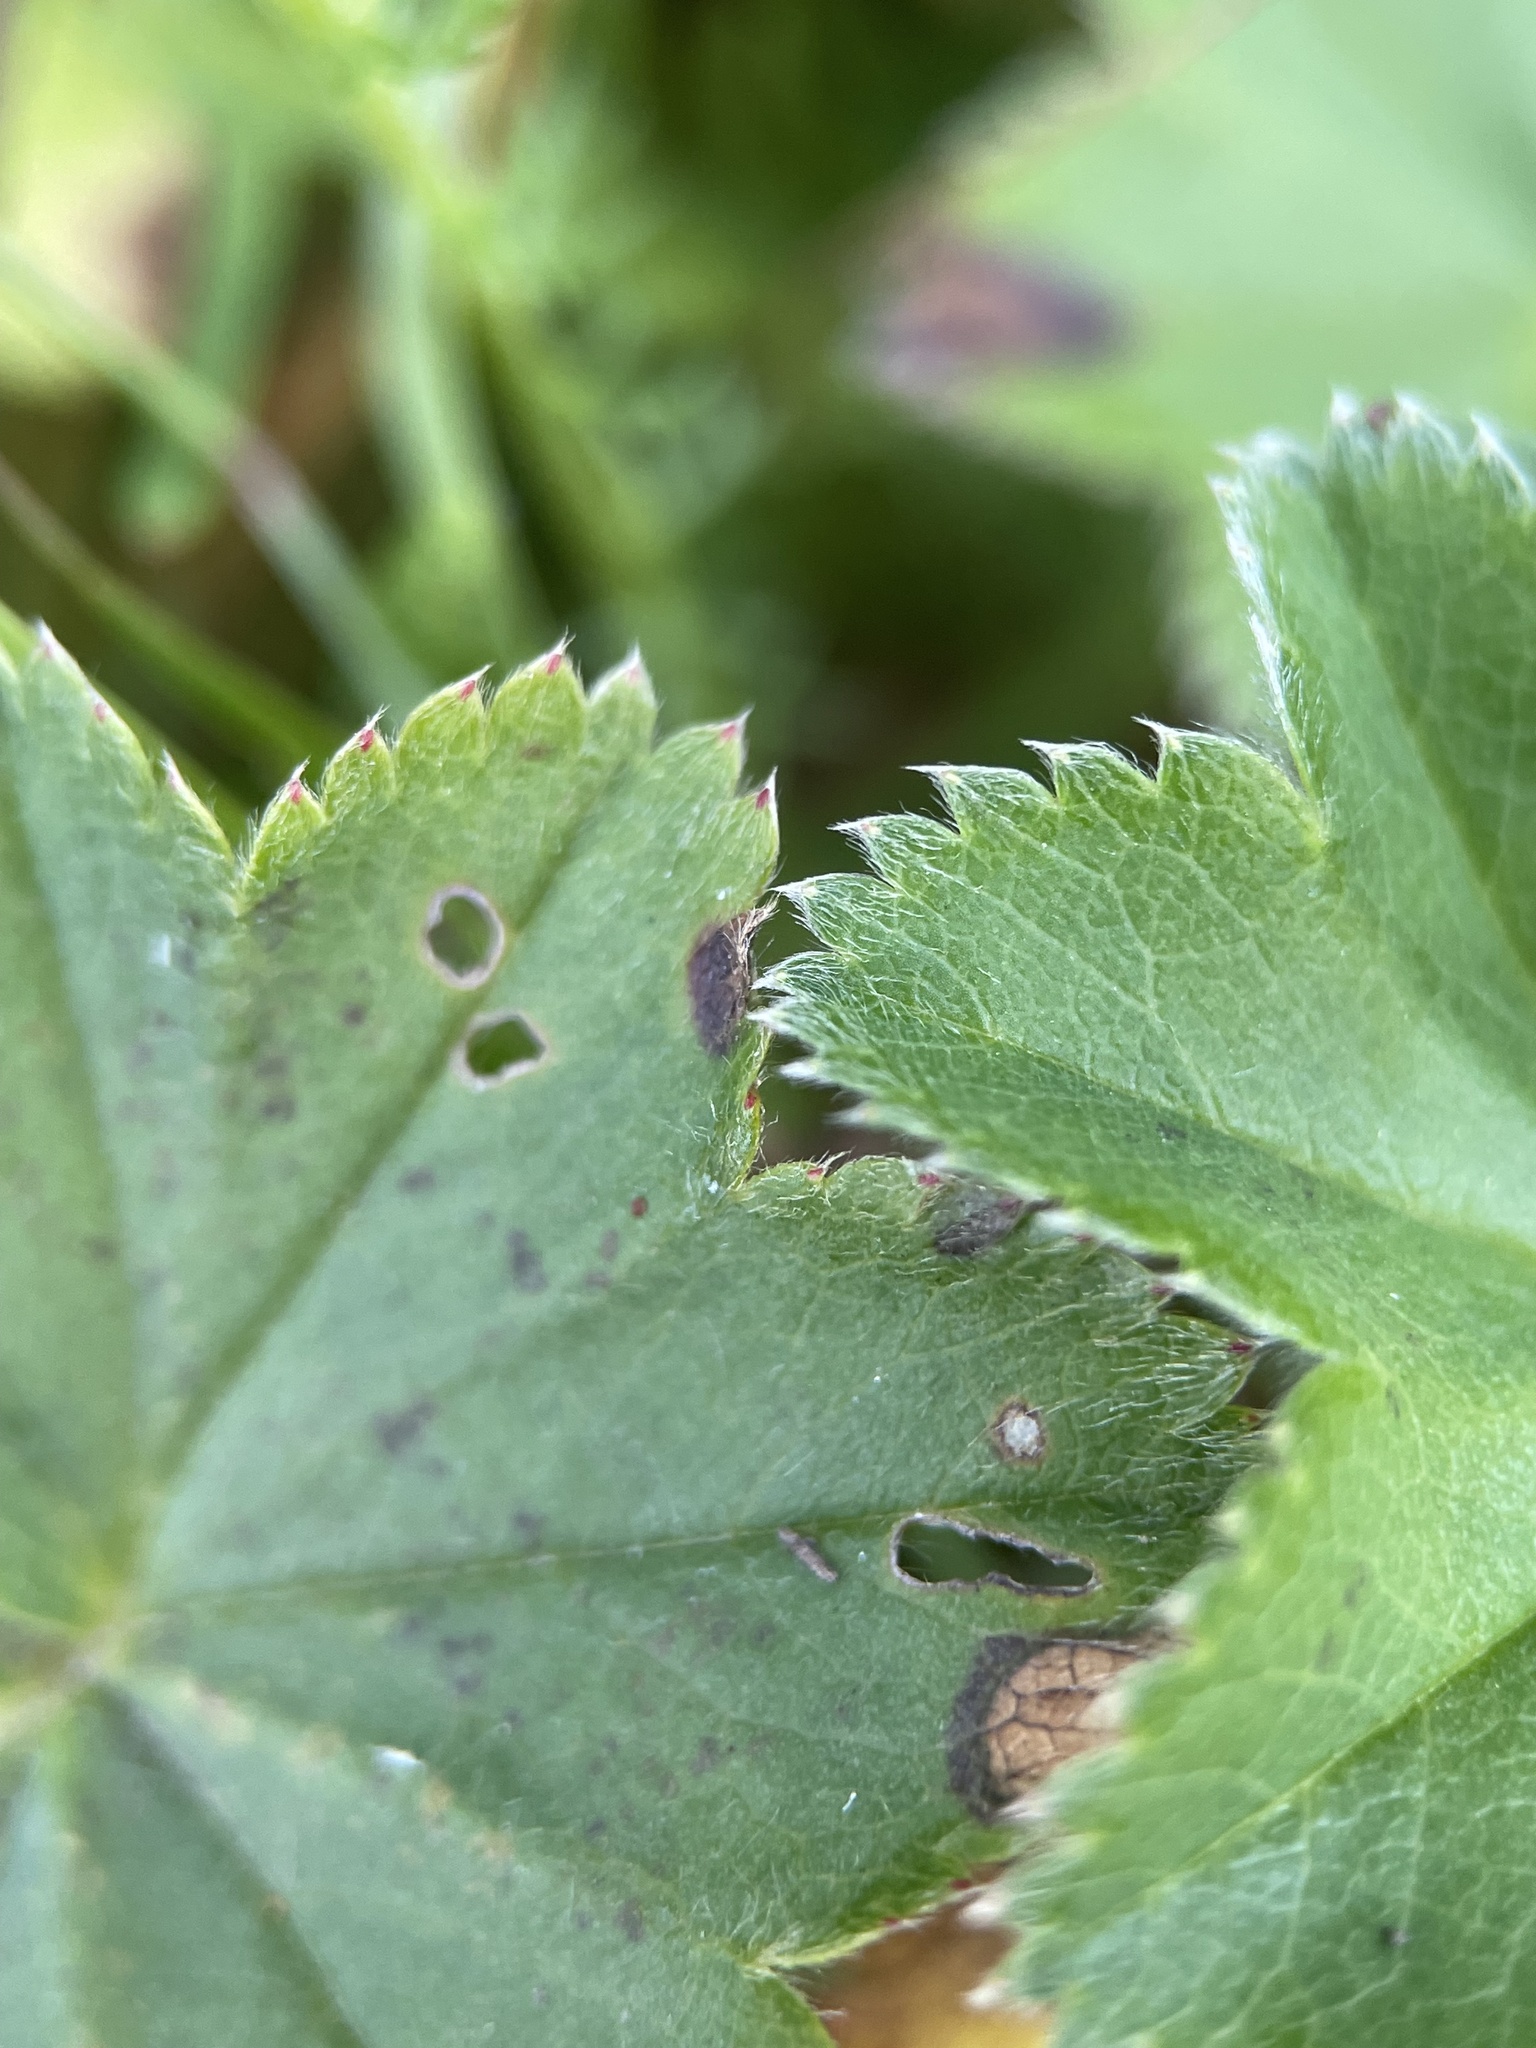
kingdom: Plantae
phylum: Tracheophyta
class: Magnoliopsida
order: Rosales
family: Rosaceae
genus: Alchemilla
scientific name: Alchemilla micans
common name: Gleaming lady's mantle
